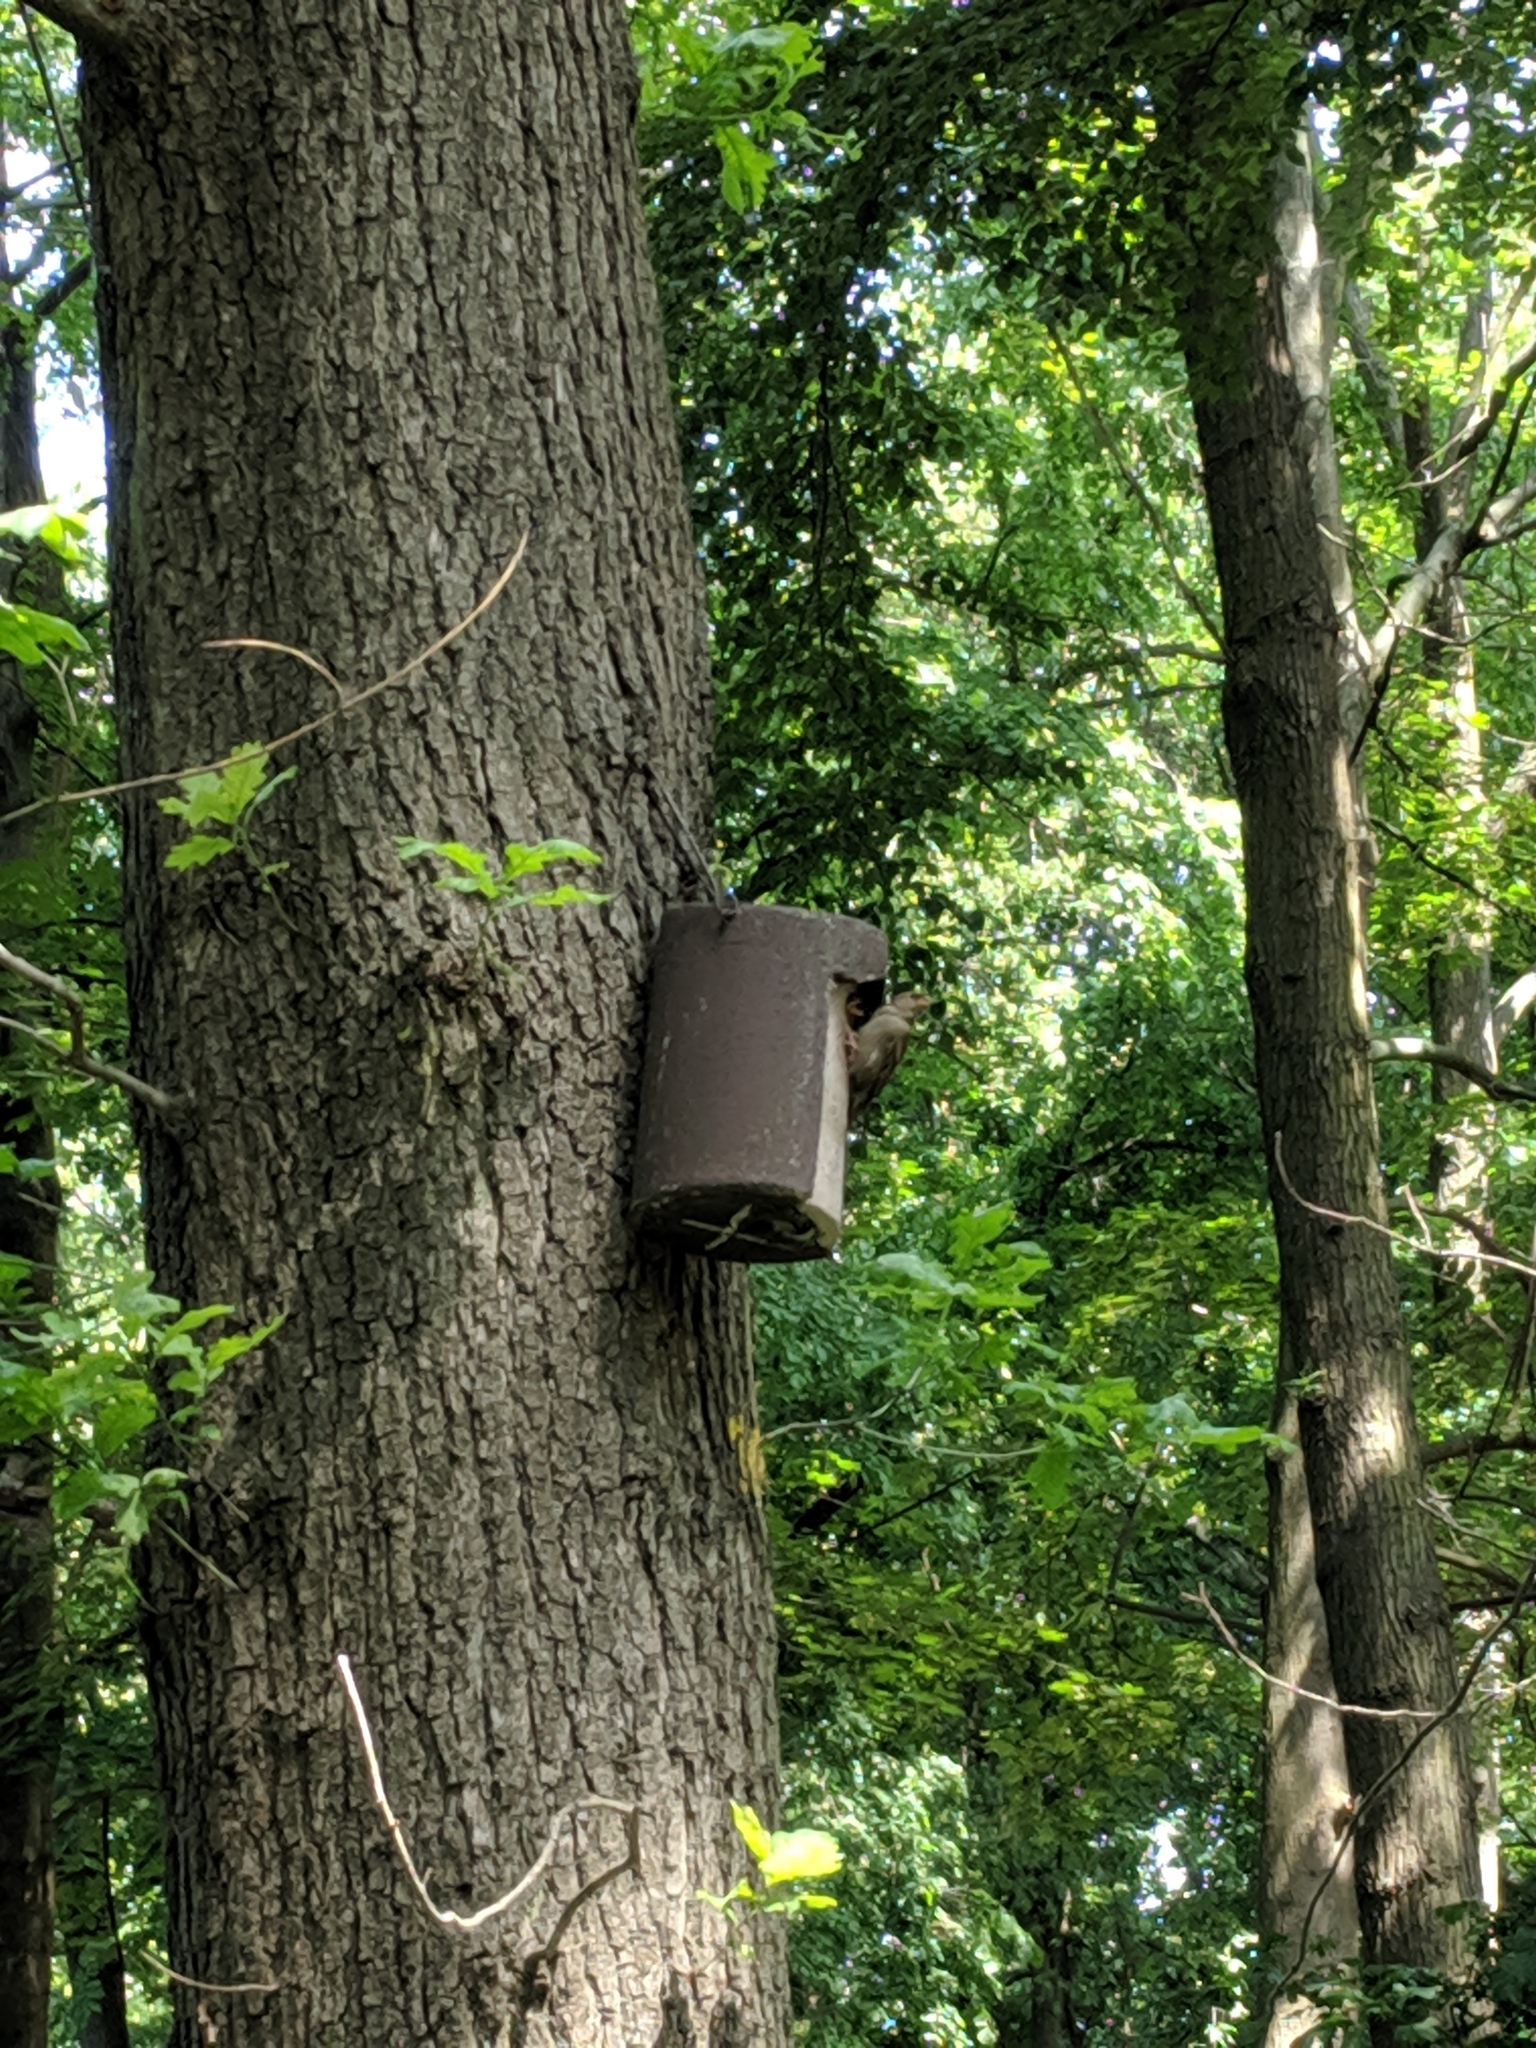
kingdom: Animalia
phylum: Chordata
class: Aves
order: Passeriformes
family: Passeridae
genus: Passer
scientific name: Passer domesticus
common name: House sparrow
